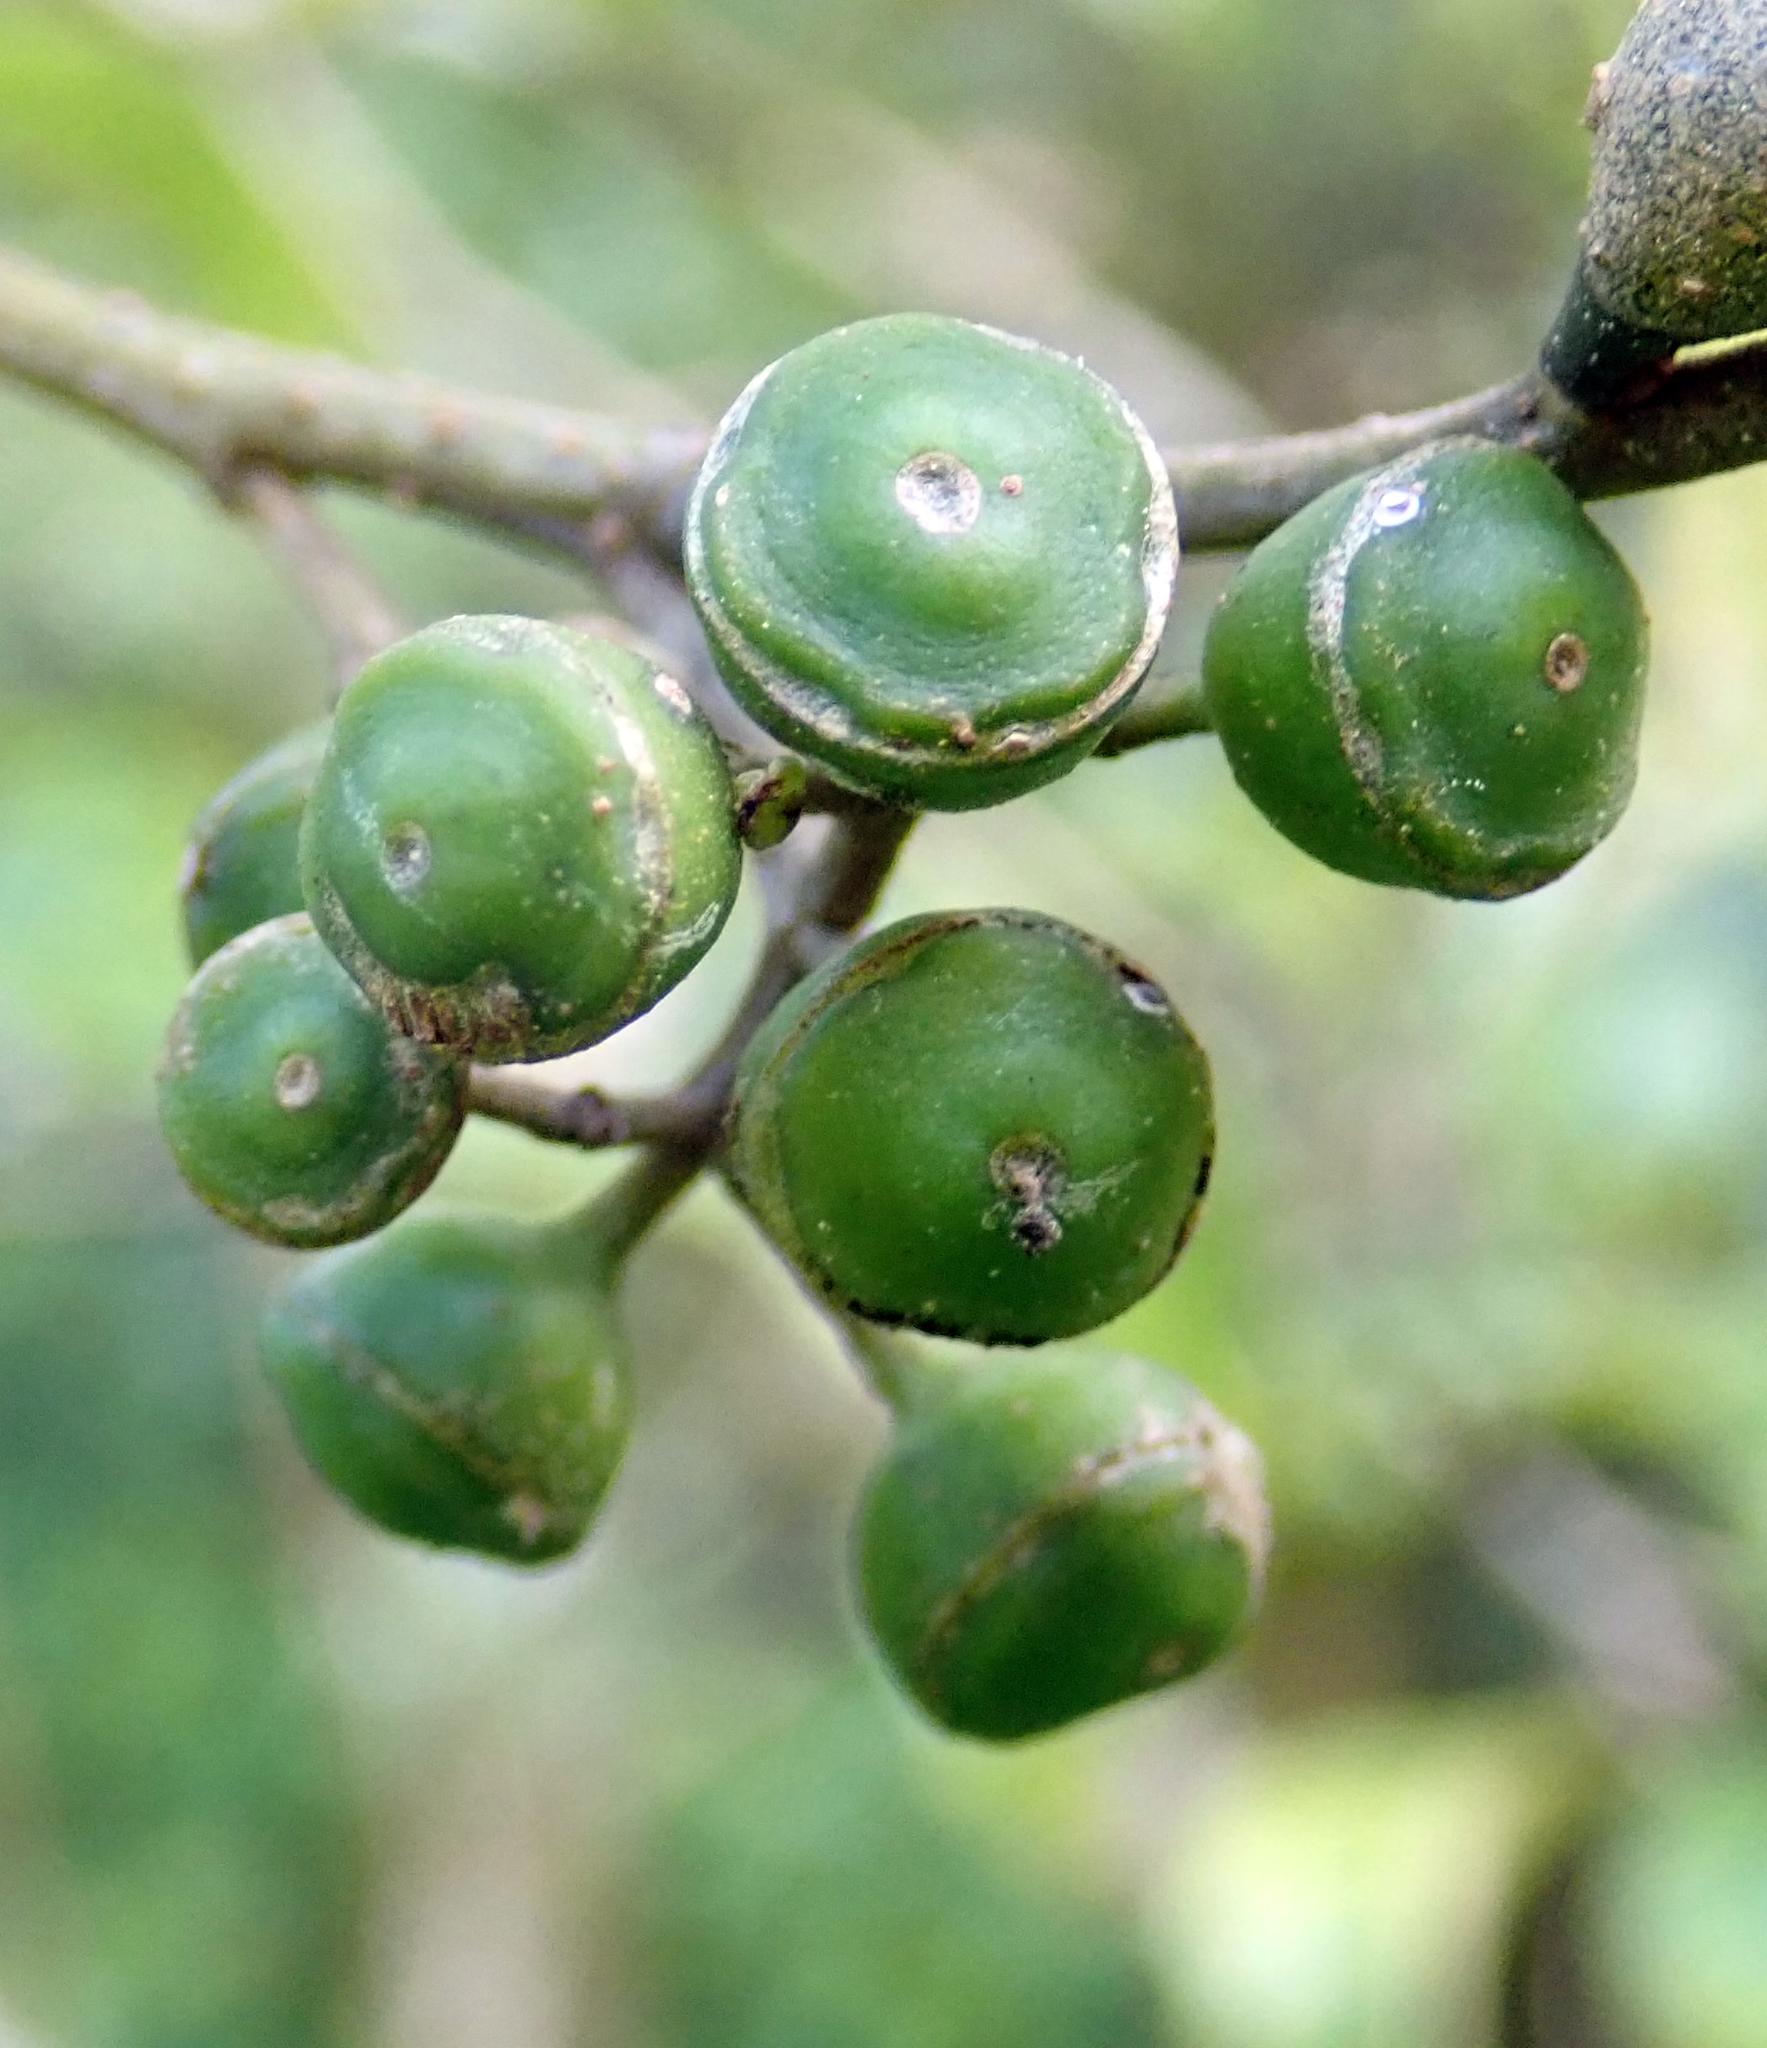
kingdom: Plantae
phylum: Tracheophyta
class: Magnoliopsida
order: Asterales
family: Rousseaceae
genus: Carpodetus
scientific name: Carpodetus serratus
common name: White mapau
